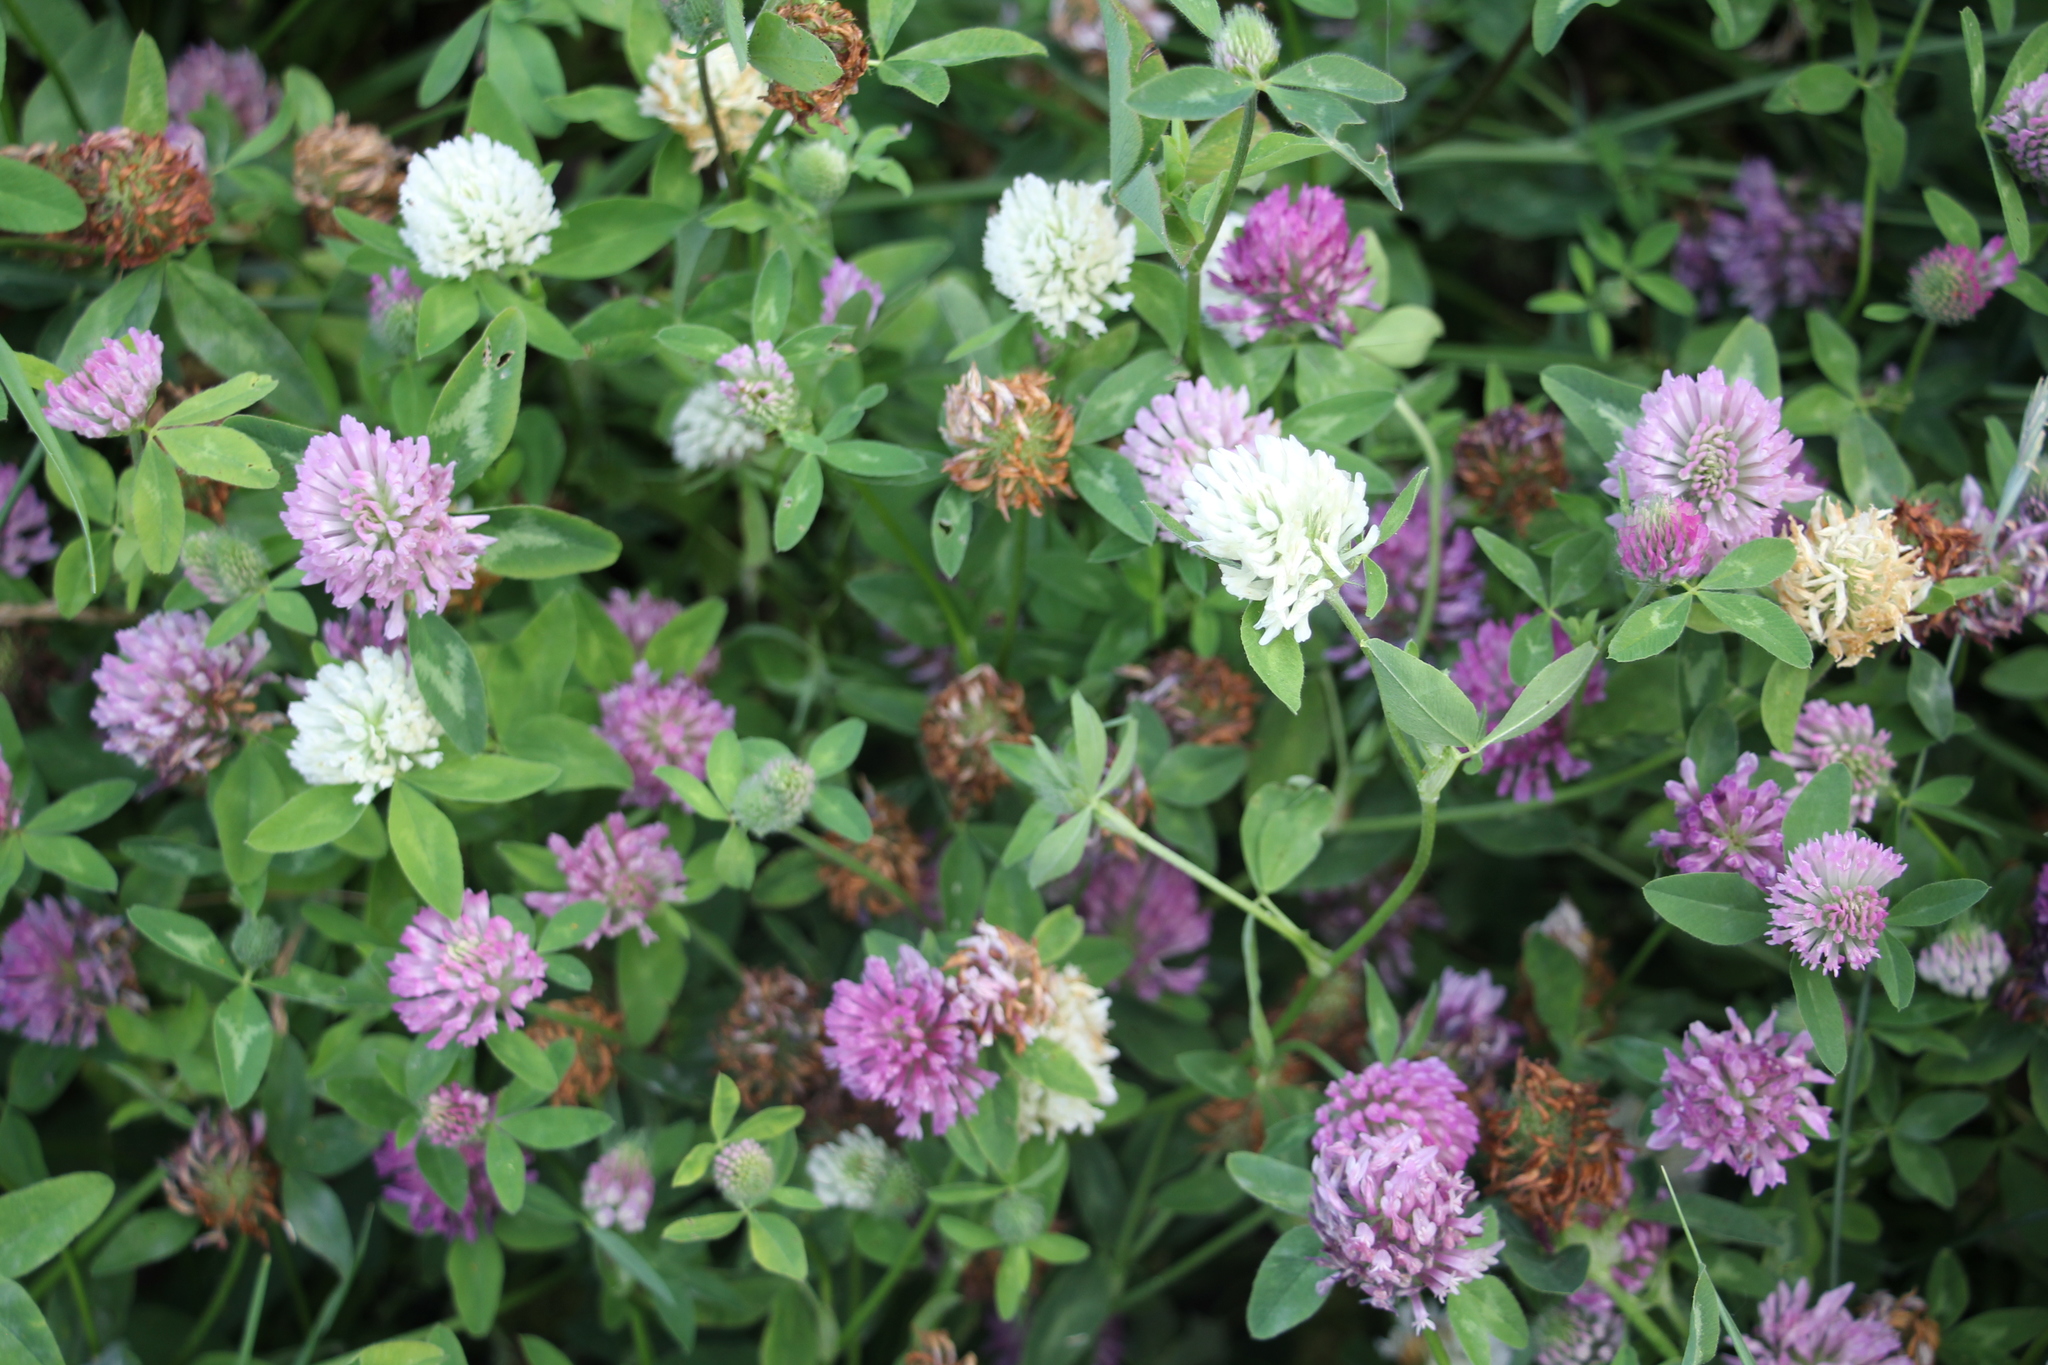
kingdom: Plantae
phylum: Tracheophyta
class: Magnoliopsida
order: Fabales
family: Fabaceae
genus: Trifolium
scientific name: Trifolium pratense
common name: Red clover
